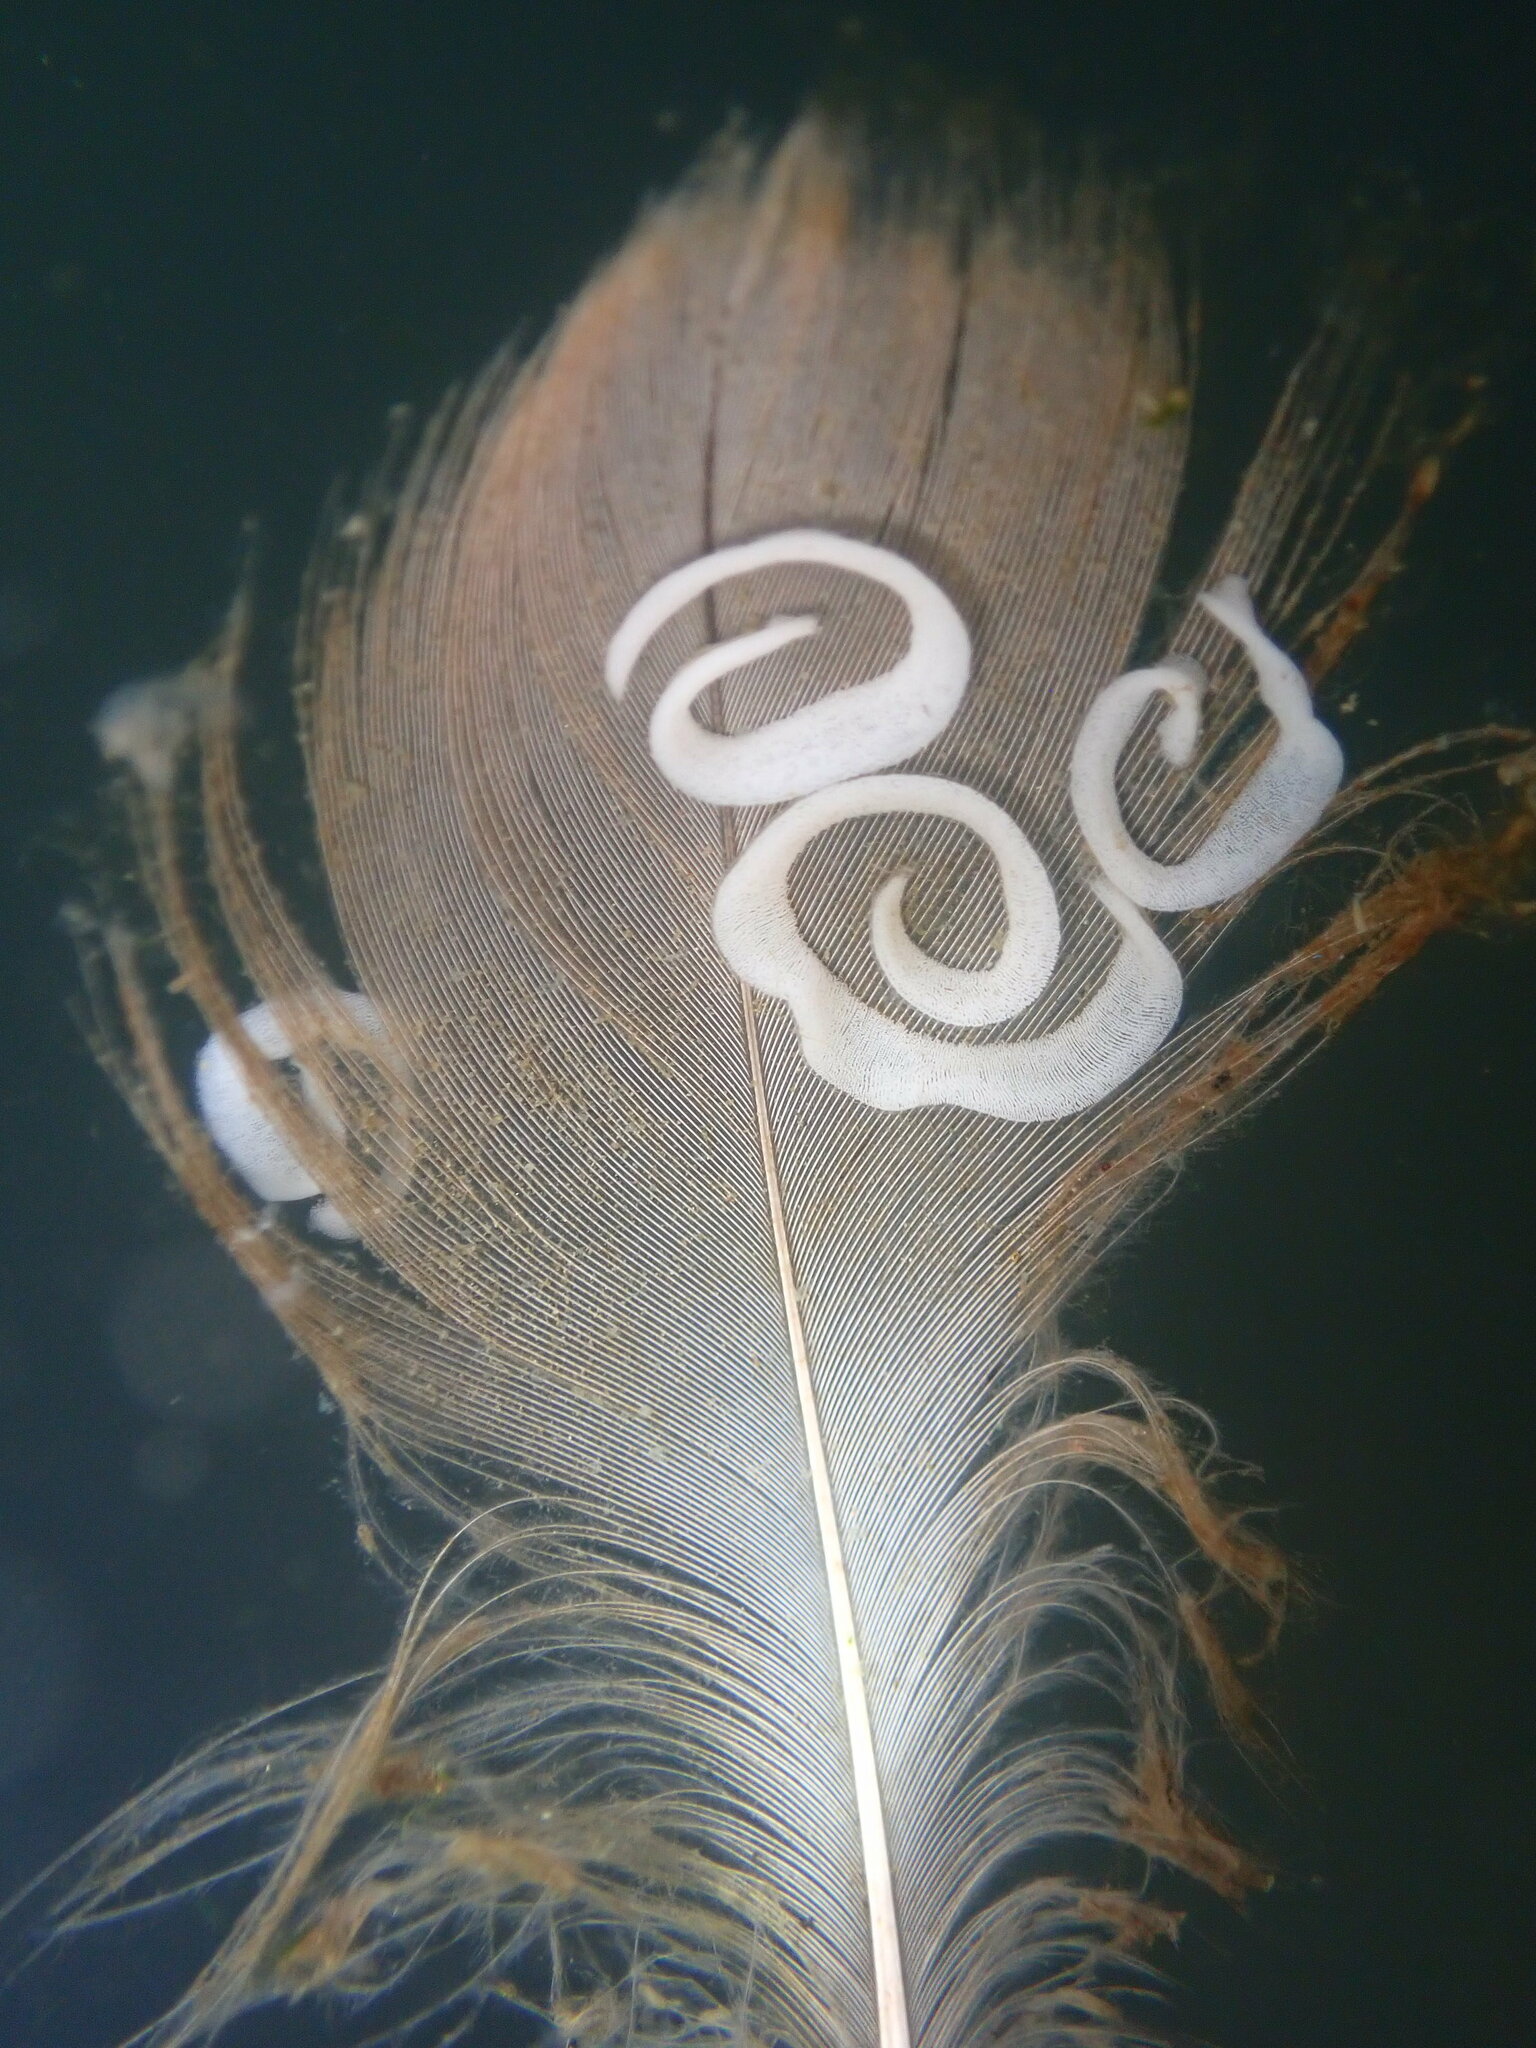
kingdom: Animalia
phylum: Mollusca
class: Gastropoda
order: Nudibranchia
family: Polyceridae
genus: Polycera
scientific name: Polycera hedgpethi
